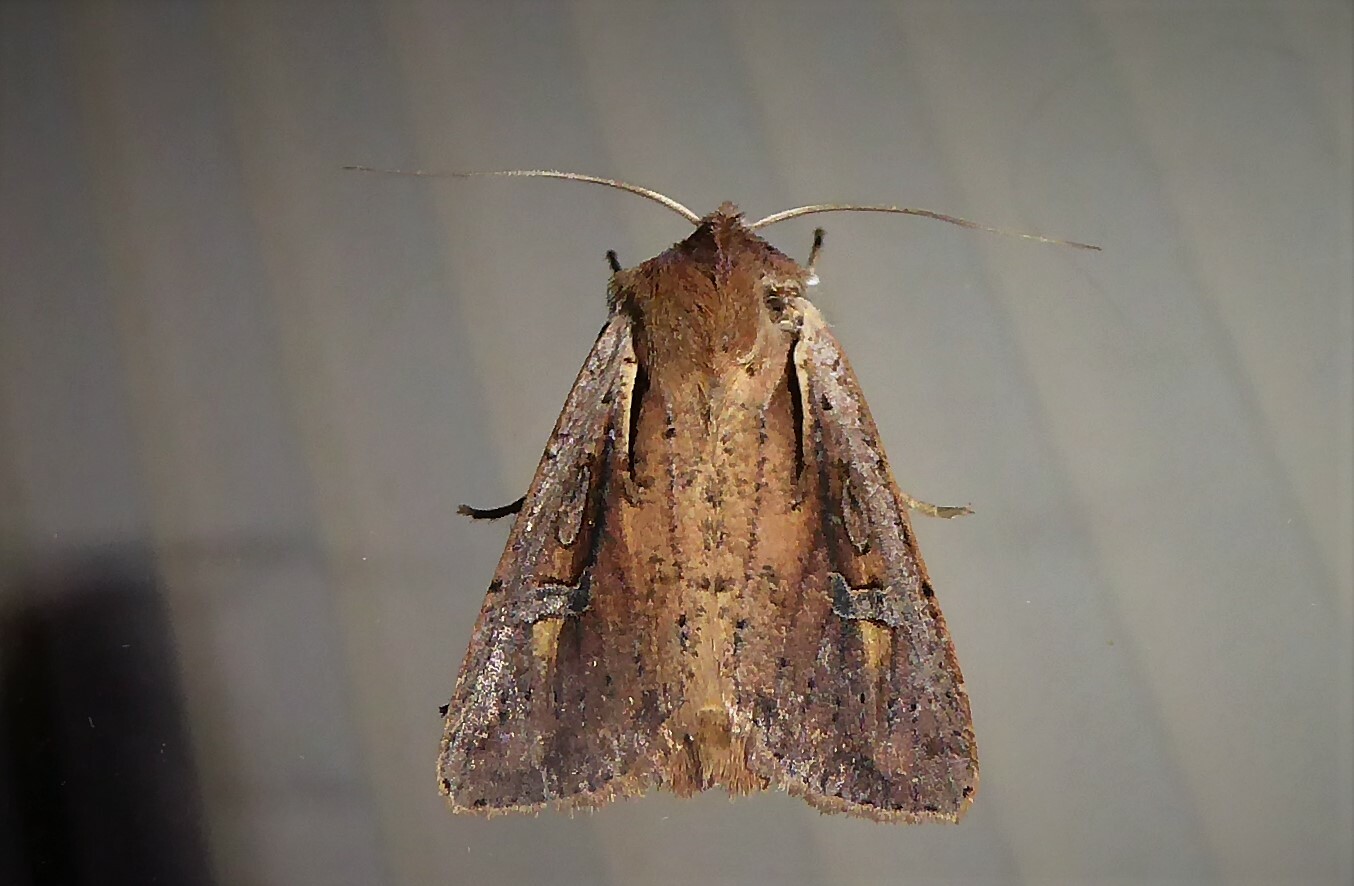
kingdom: Animalia
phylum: Arthropoda
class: Insecta
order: Lepidoptera
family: Noctuidae
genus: Ichneutica
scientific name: Ichneutica atristriga
